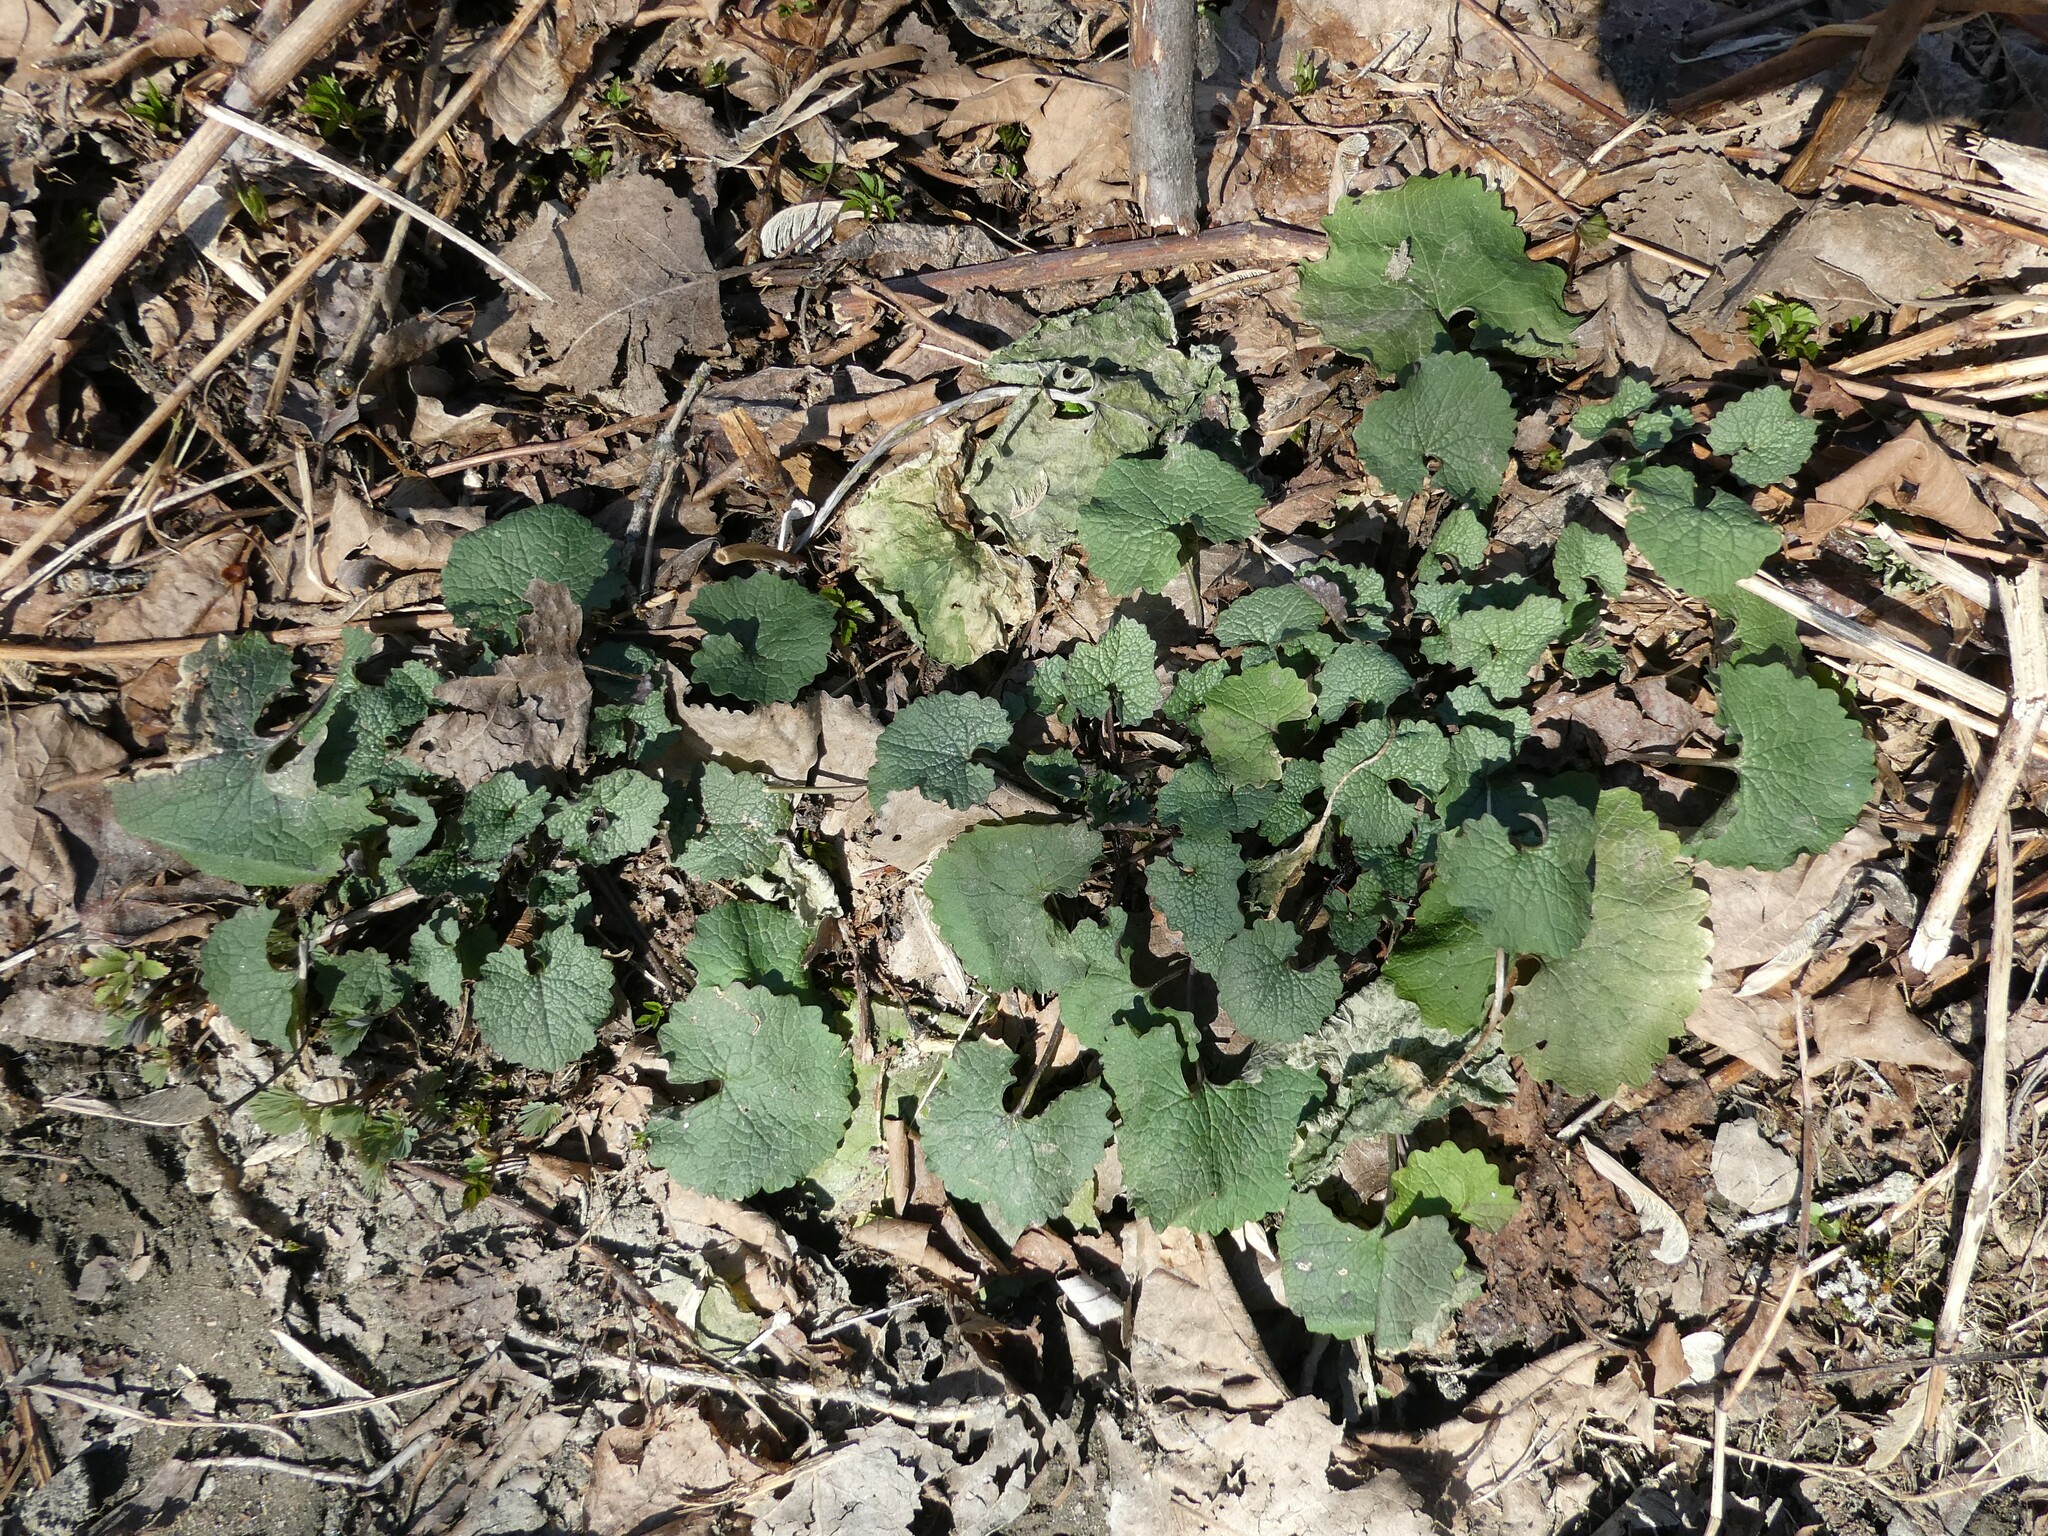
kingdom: Plantae
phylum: Tracheophyta
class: Magnoliopsida
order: Brassicales
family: Brassicaceae
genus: Alliaria
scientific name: Alliaria petiolata
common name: Garlic mustard
